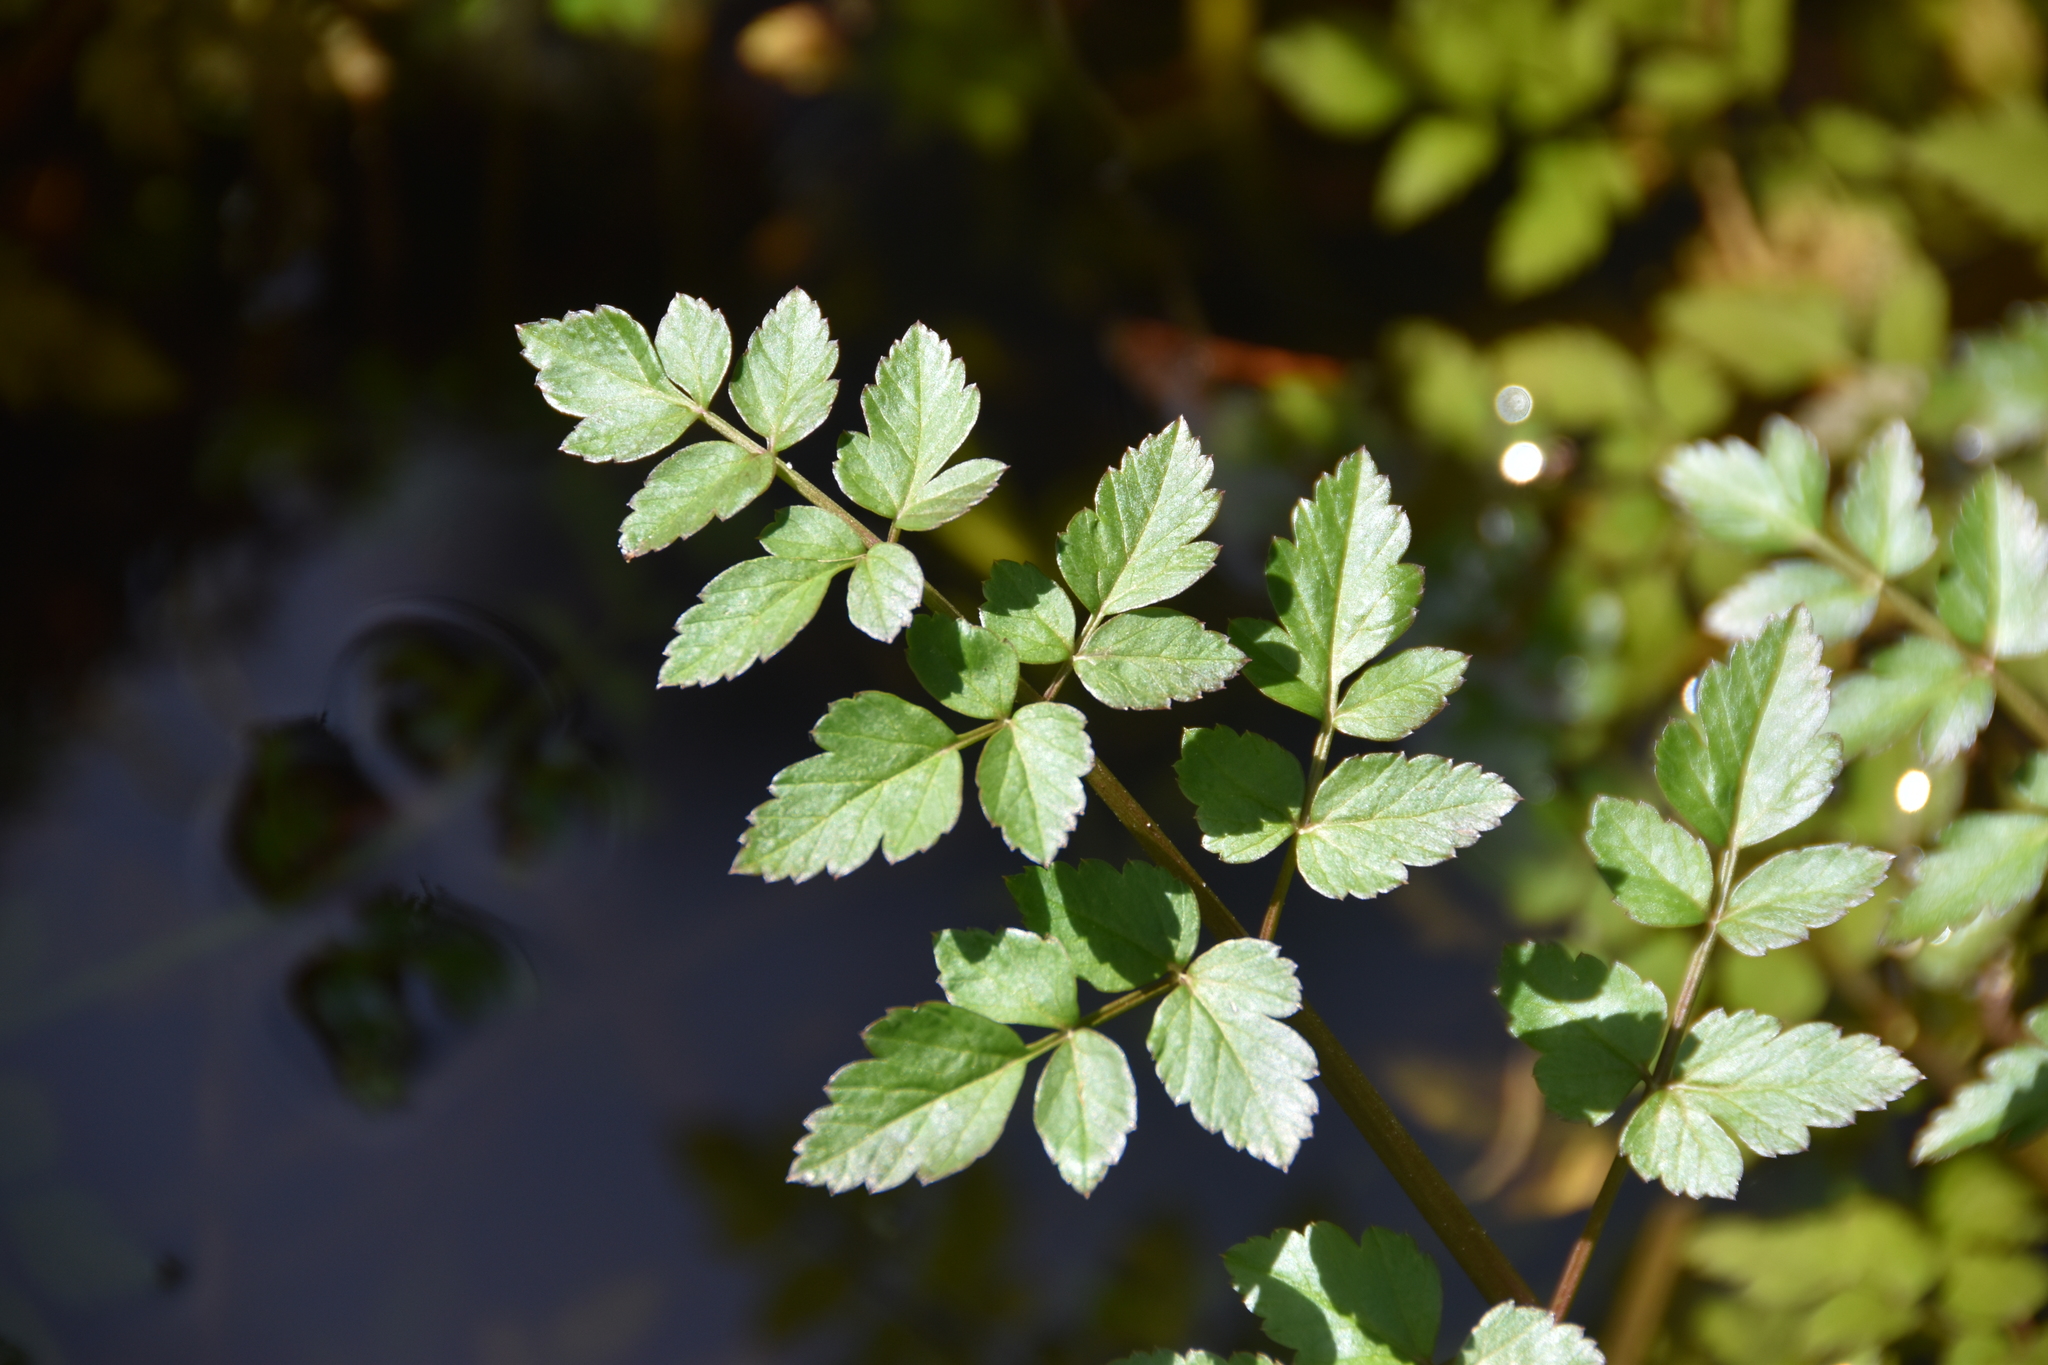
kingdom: Plantae
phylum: Tracheophyta
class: Magnoliopsida
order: Apiales
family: Apiaceae
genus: Oenanthe
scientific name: Oenanthe sarmentosa
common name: American water-parsley
